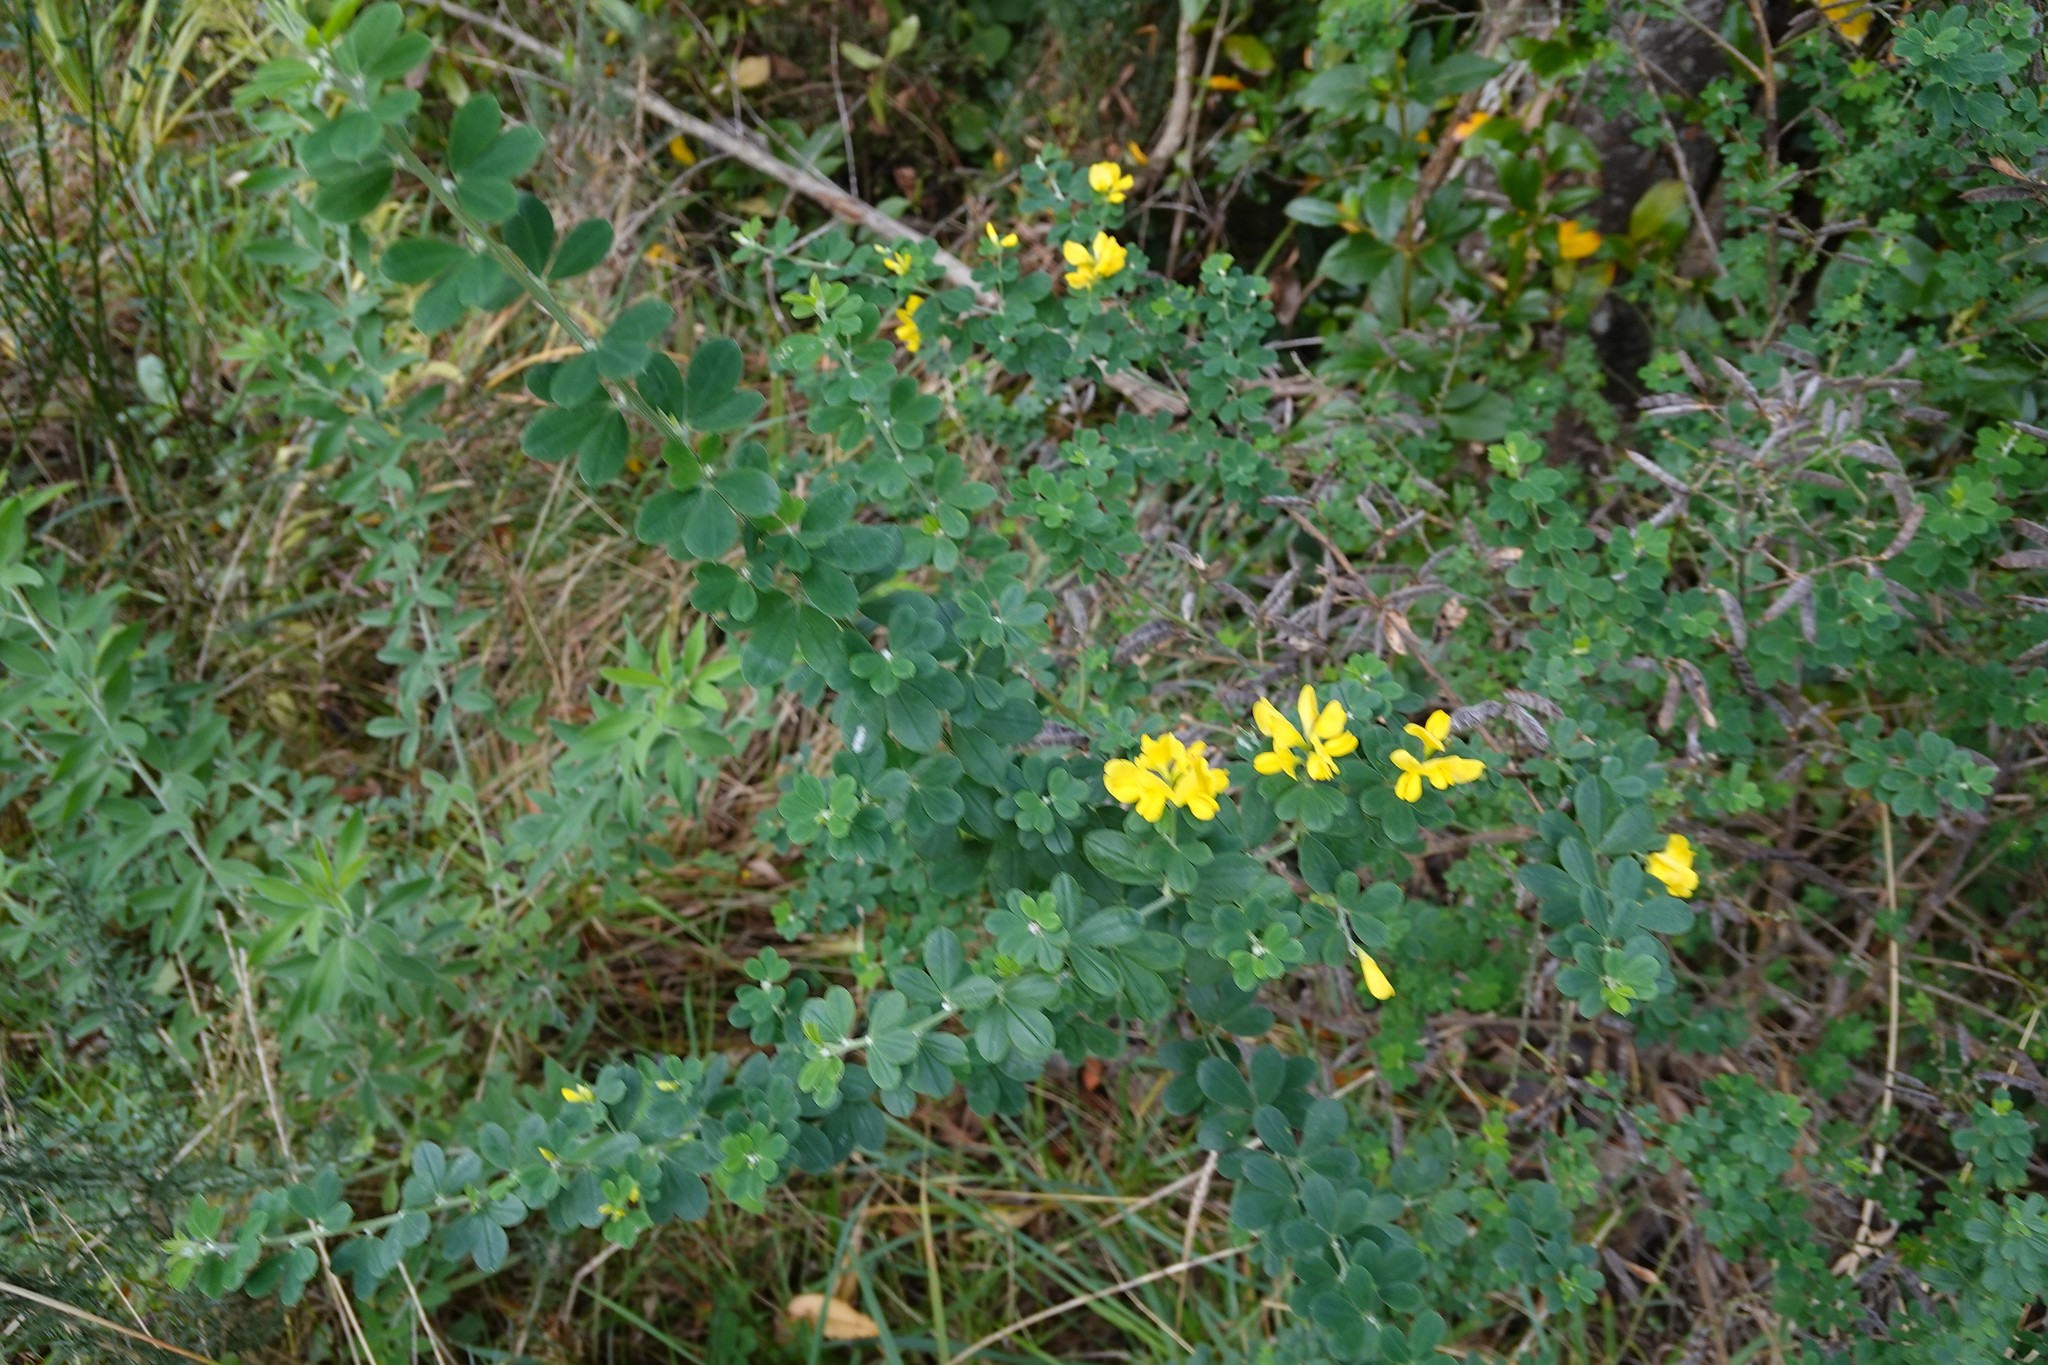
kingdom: Plantae
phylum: Tracheophyta
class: Magnoliopsida
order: Fabales
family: Fabaceae
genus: Genista
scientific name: Genista monspessulana
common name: Montpellier broom
